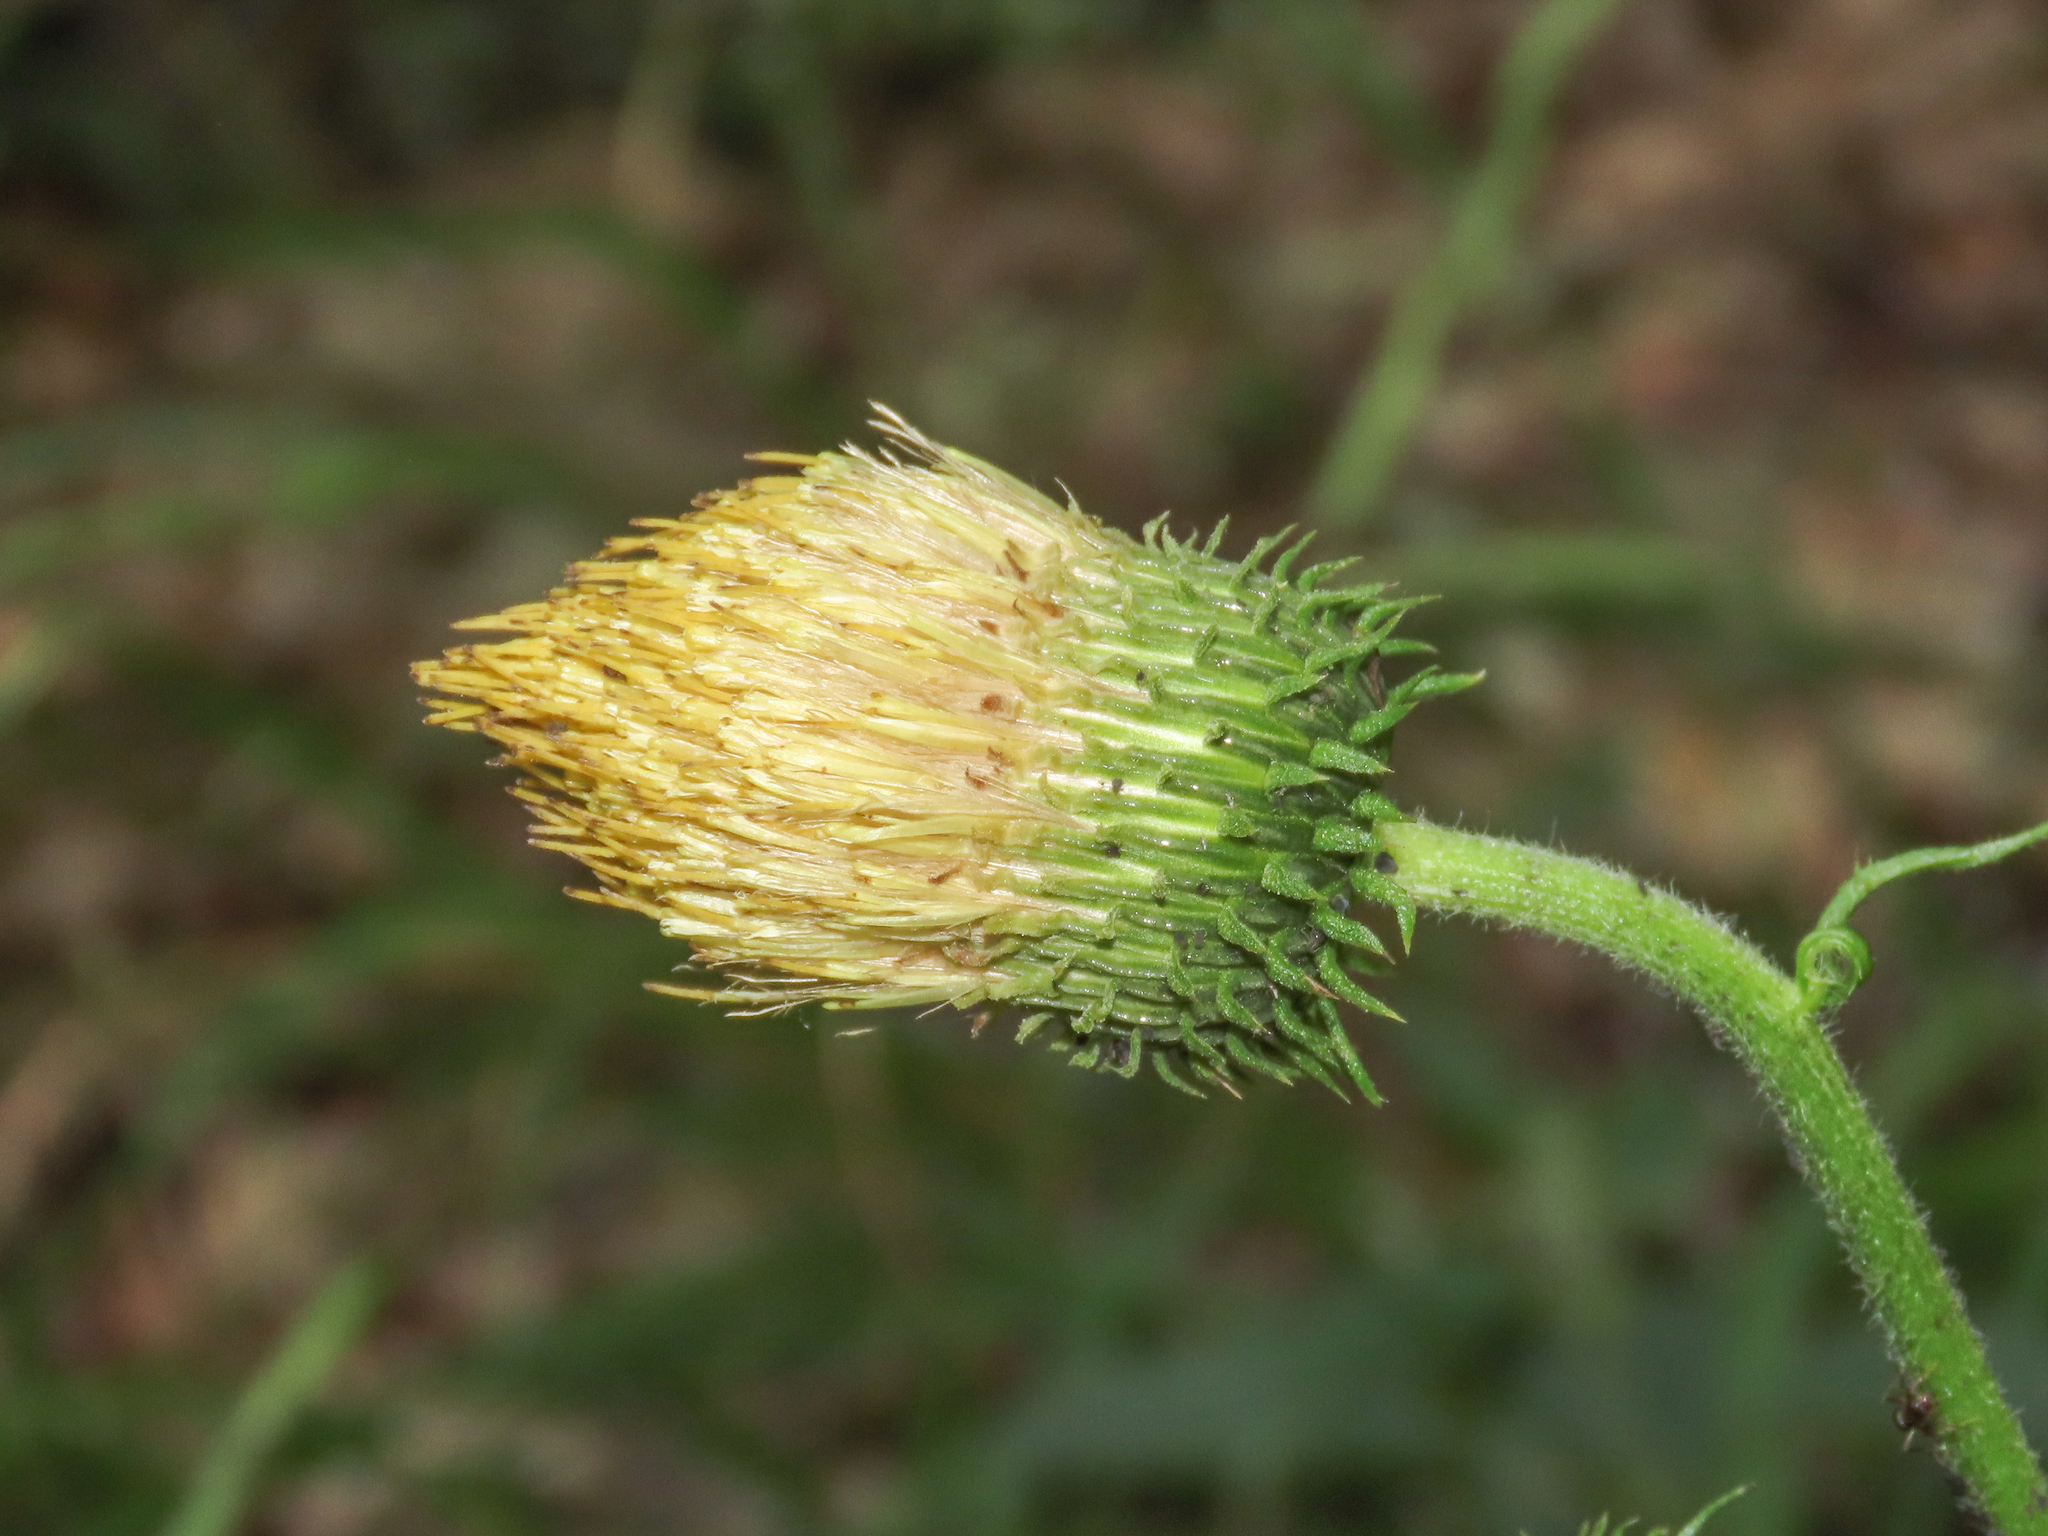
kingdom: Plantae
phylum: Tracheophyta
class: Magnoliopsida
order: Asterales
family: Asteraceae
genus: Cirsium
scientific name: Cirsium erisithales
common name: Yellow thistle
